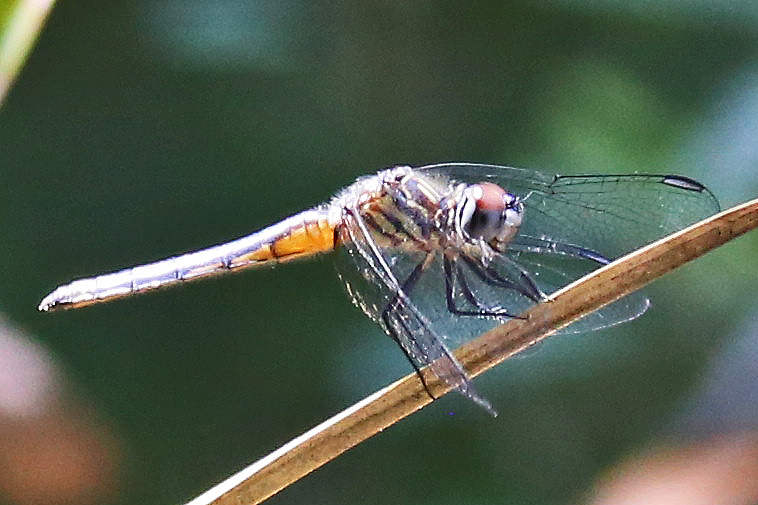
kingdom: Animalia
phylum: Arthropoda
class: Insecta
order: Odonata
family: Libellulidae
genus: Pachydiplax
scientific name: Pachydiplax longipennis
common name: Blue dasher
